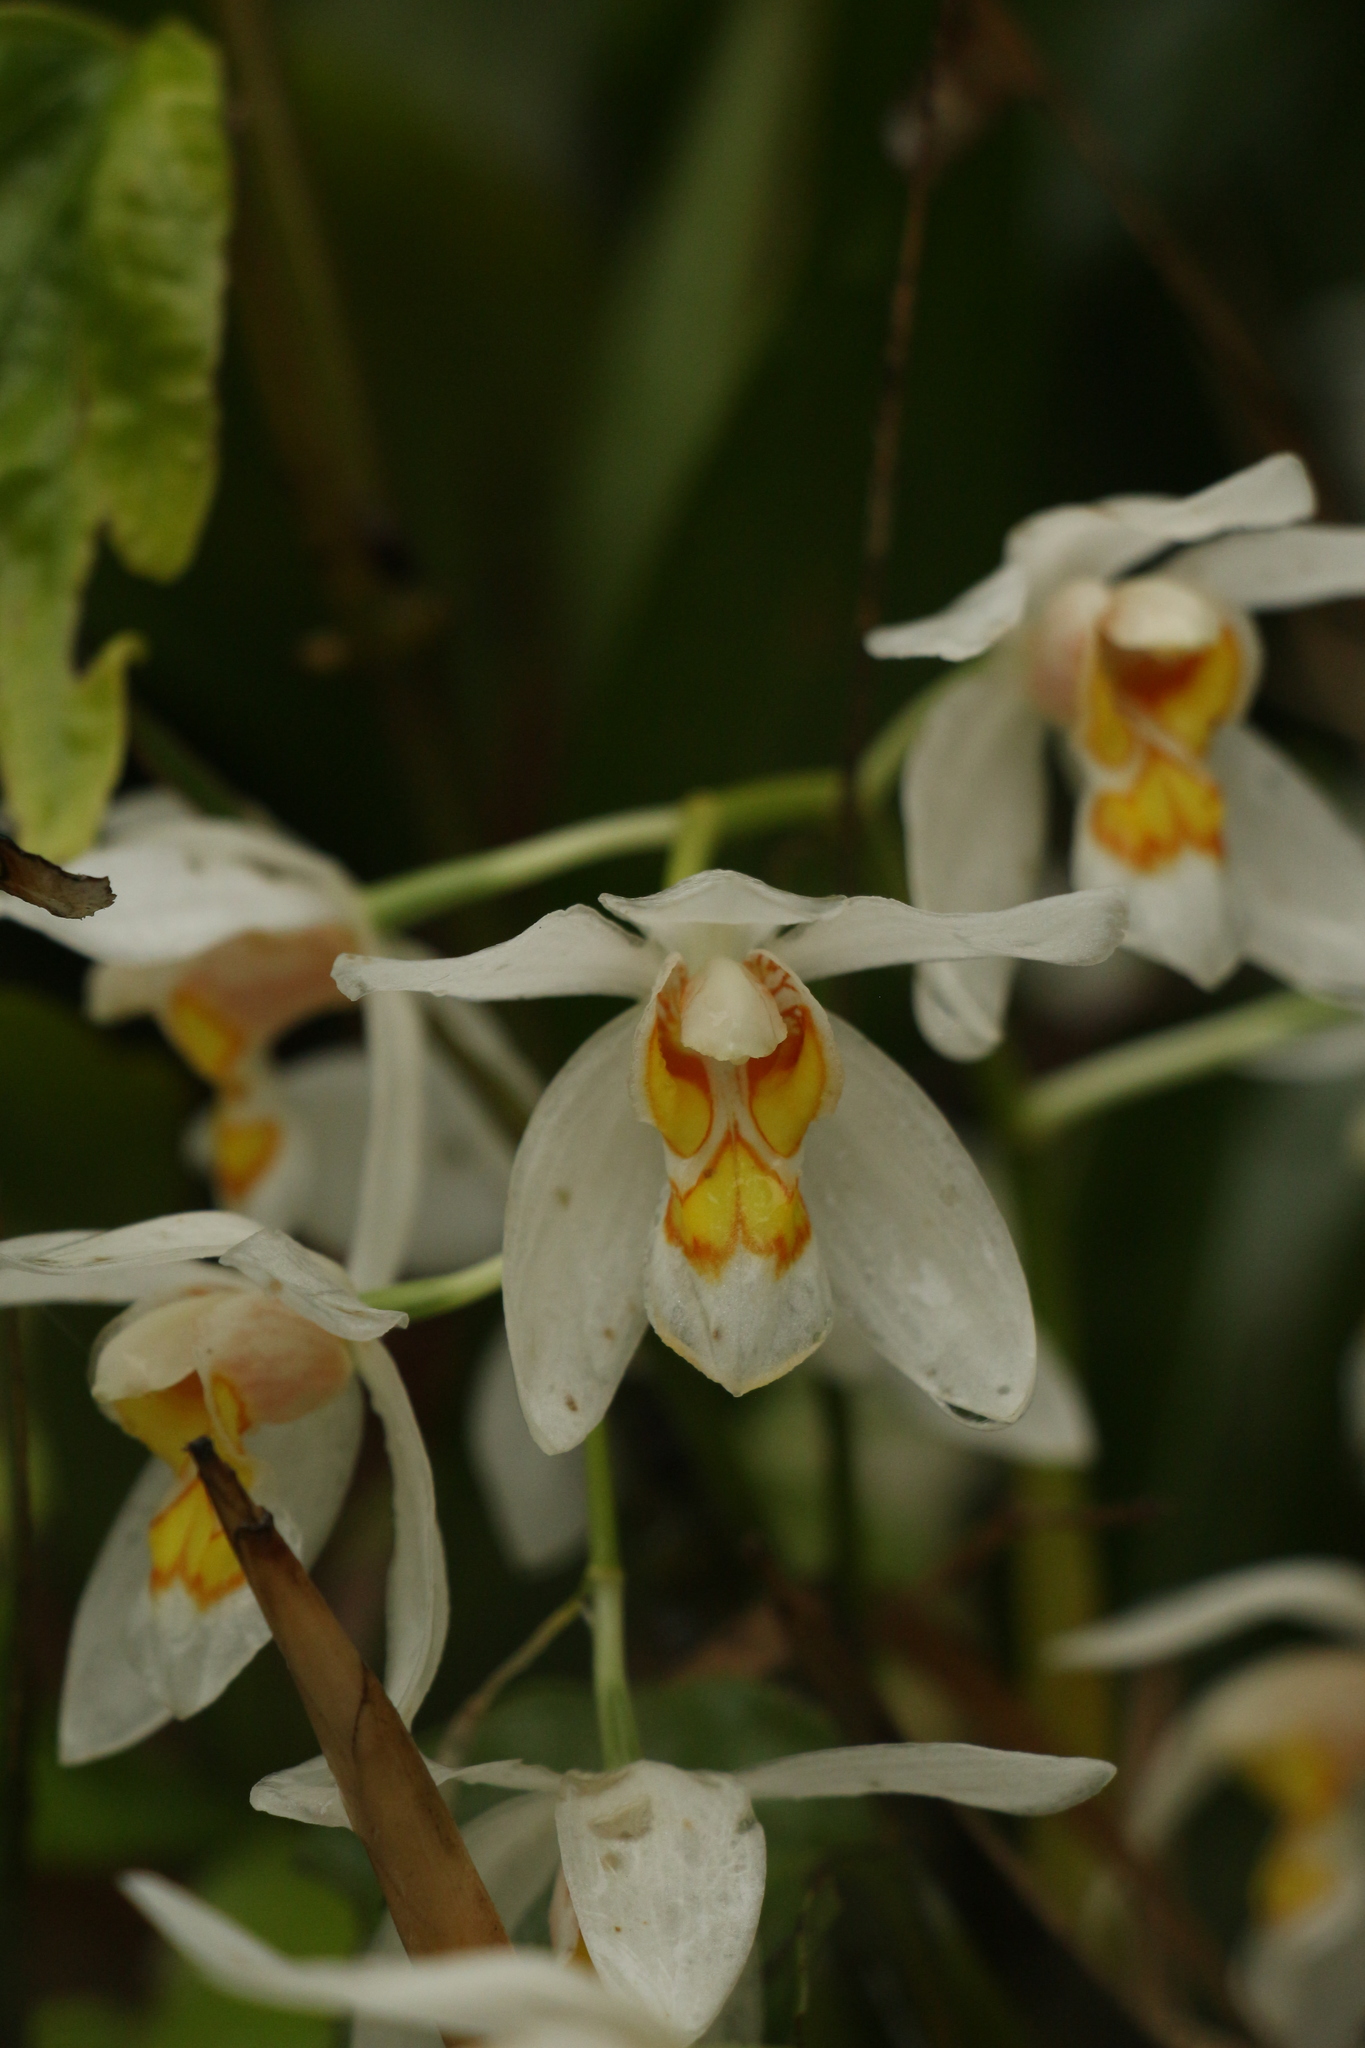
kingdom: Plantae
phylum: Tracheophyta
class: Liliopsida
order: Asparagales
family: Orchidaceae
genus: Coelogyne
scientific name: Coelogyne nitida
